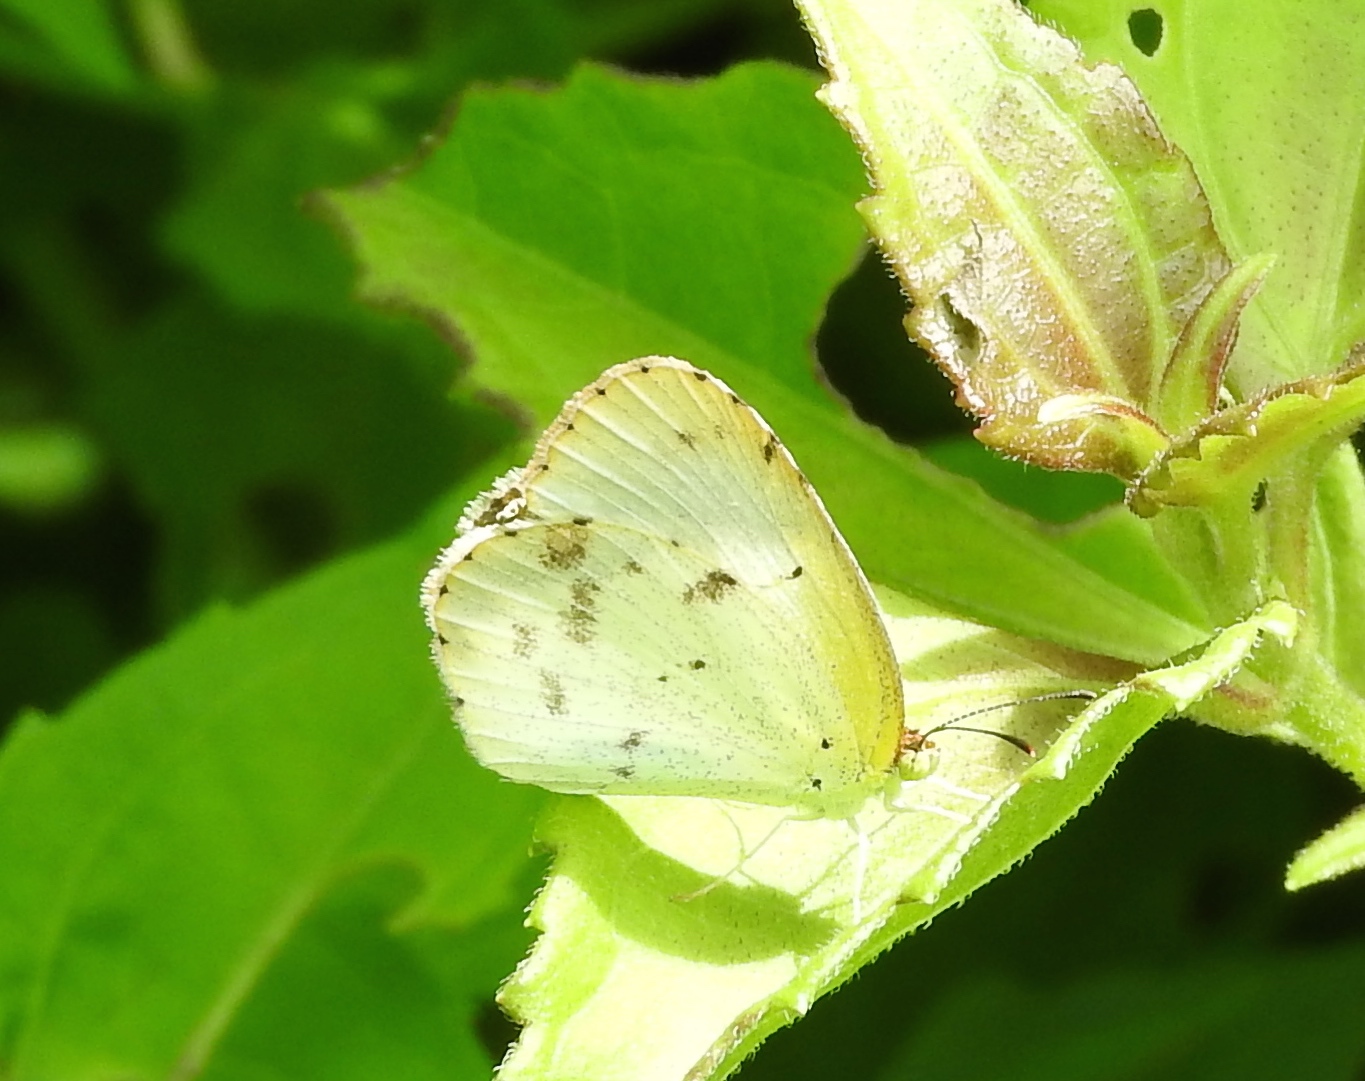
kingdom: Animalia
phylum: Arthropoda
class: Insecta
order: Lepidoptera
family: Pieridae
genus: Pyrisitia
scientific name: Pyrisitia lisa
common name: Little yellow
